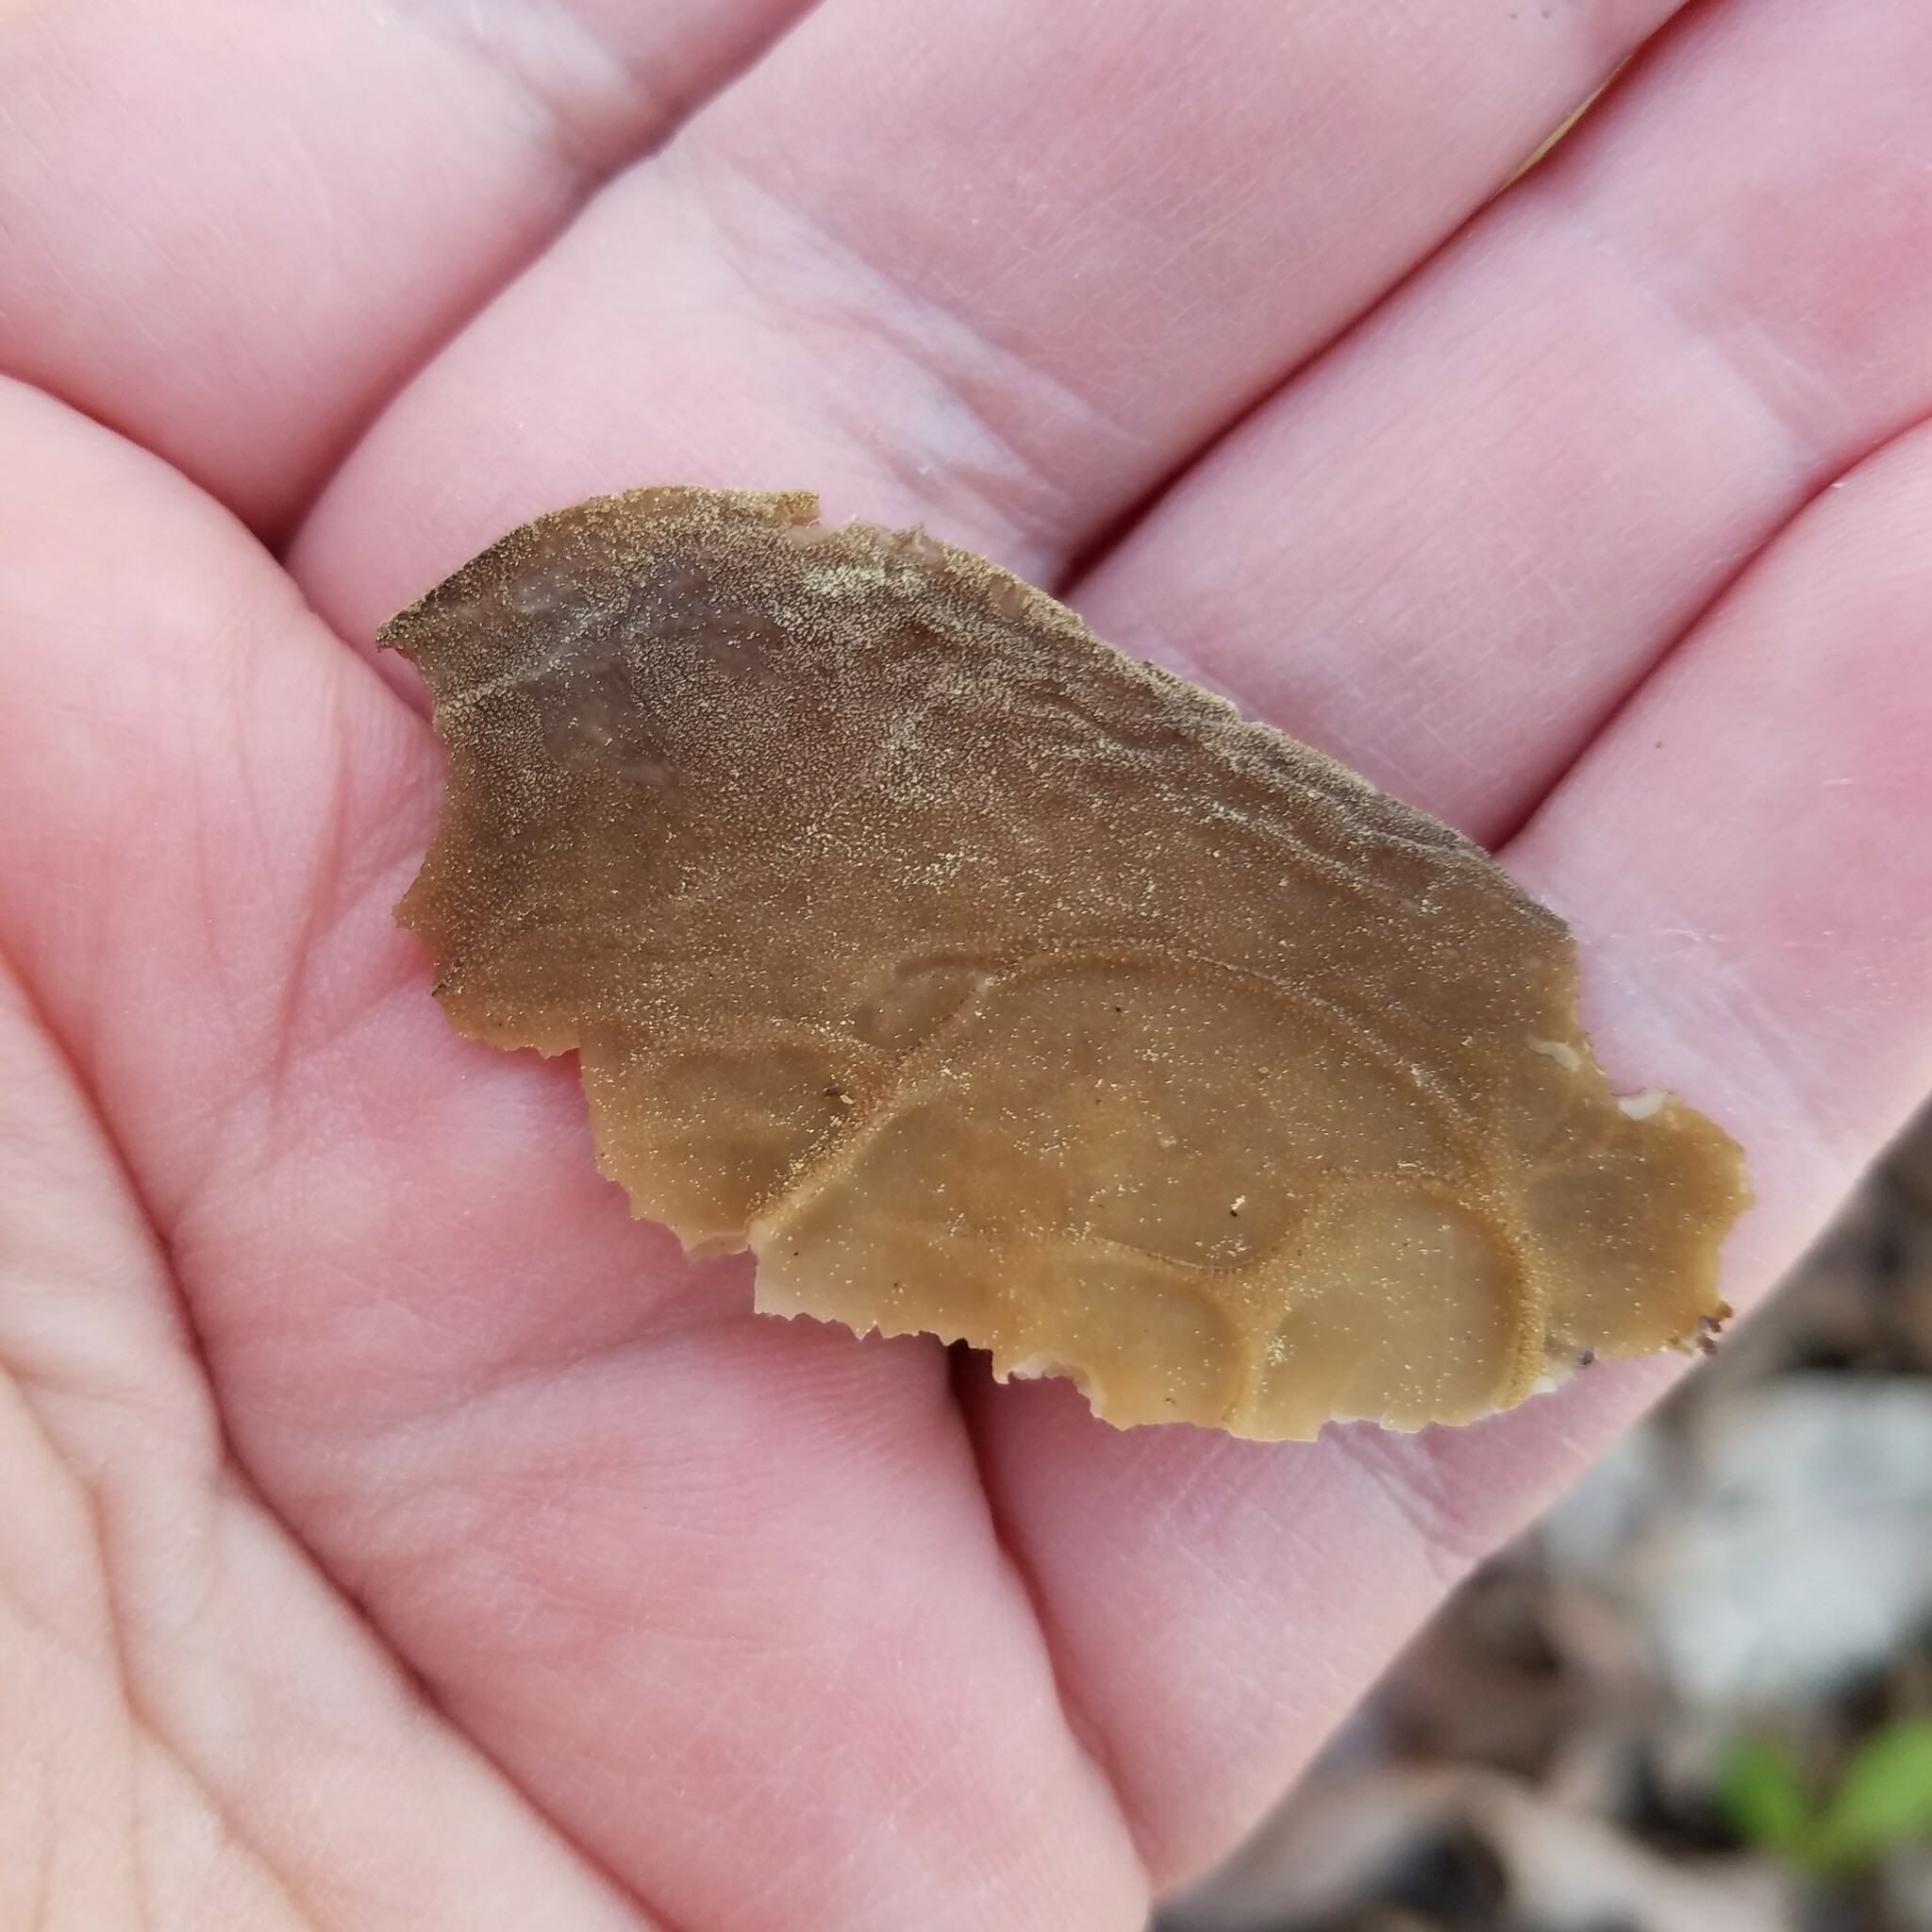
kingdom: Fungi
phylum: Ascomycota
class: Pezizomycetes
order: Pezizales
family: Helvellaceae
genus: Helvella
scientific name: Helvella acetabulum
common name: Vinegar cup
